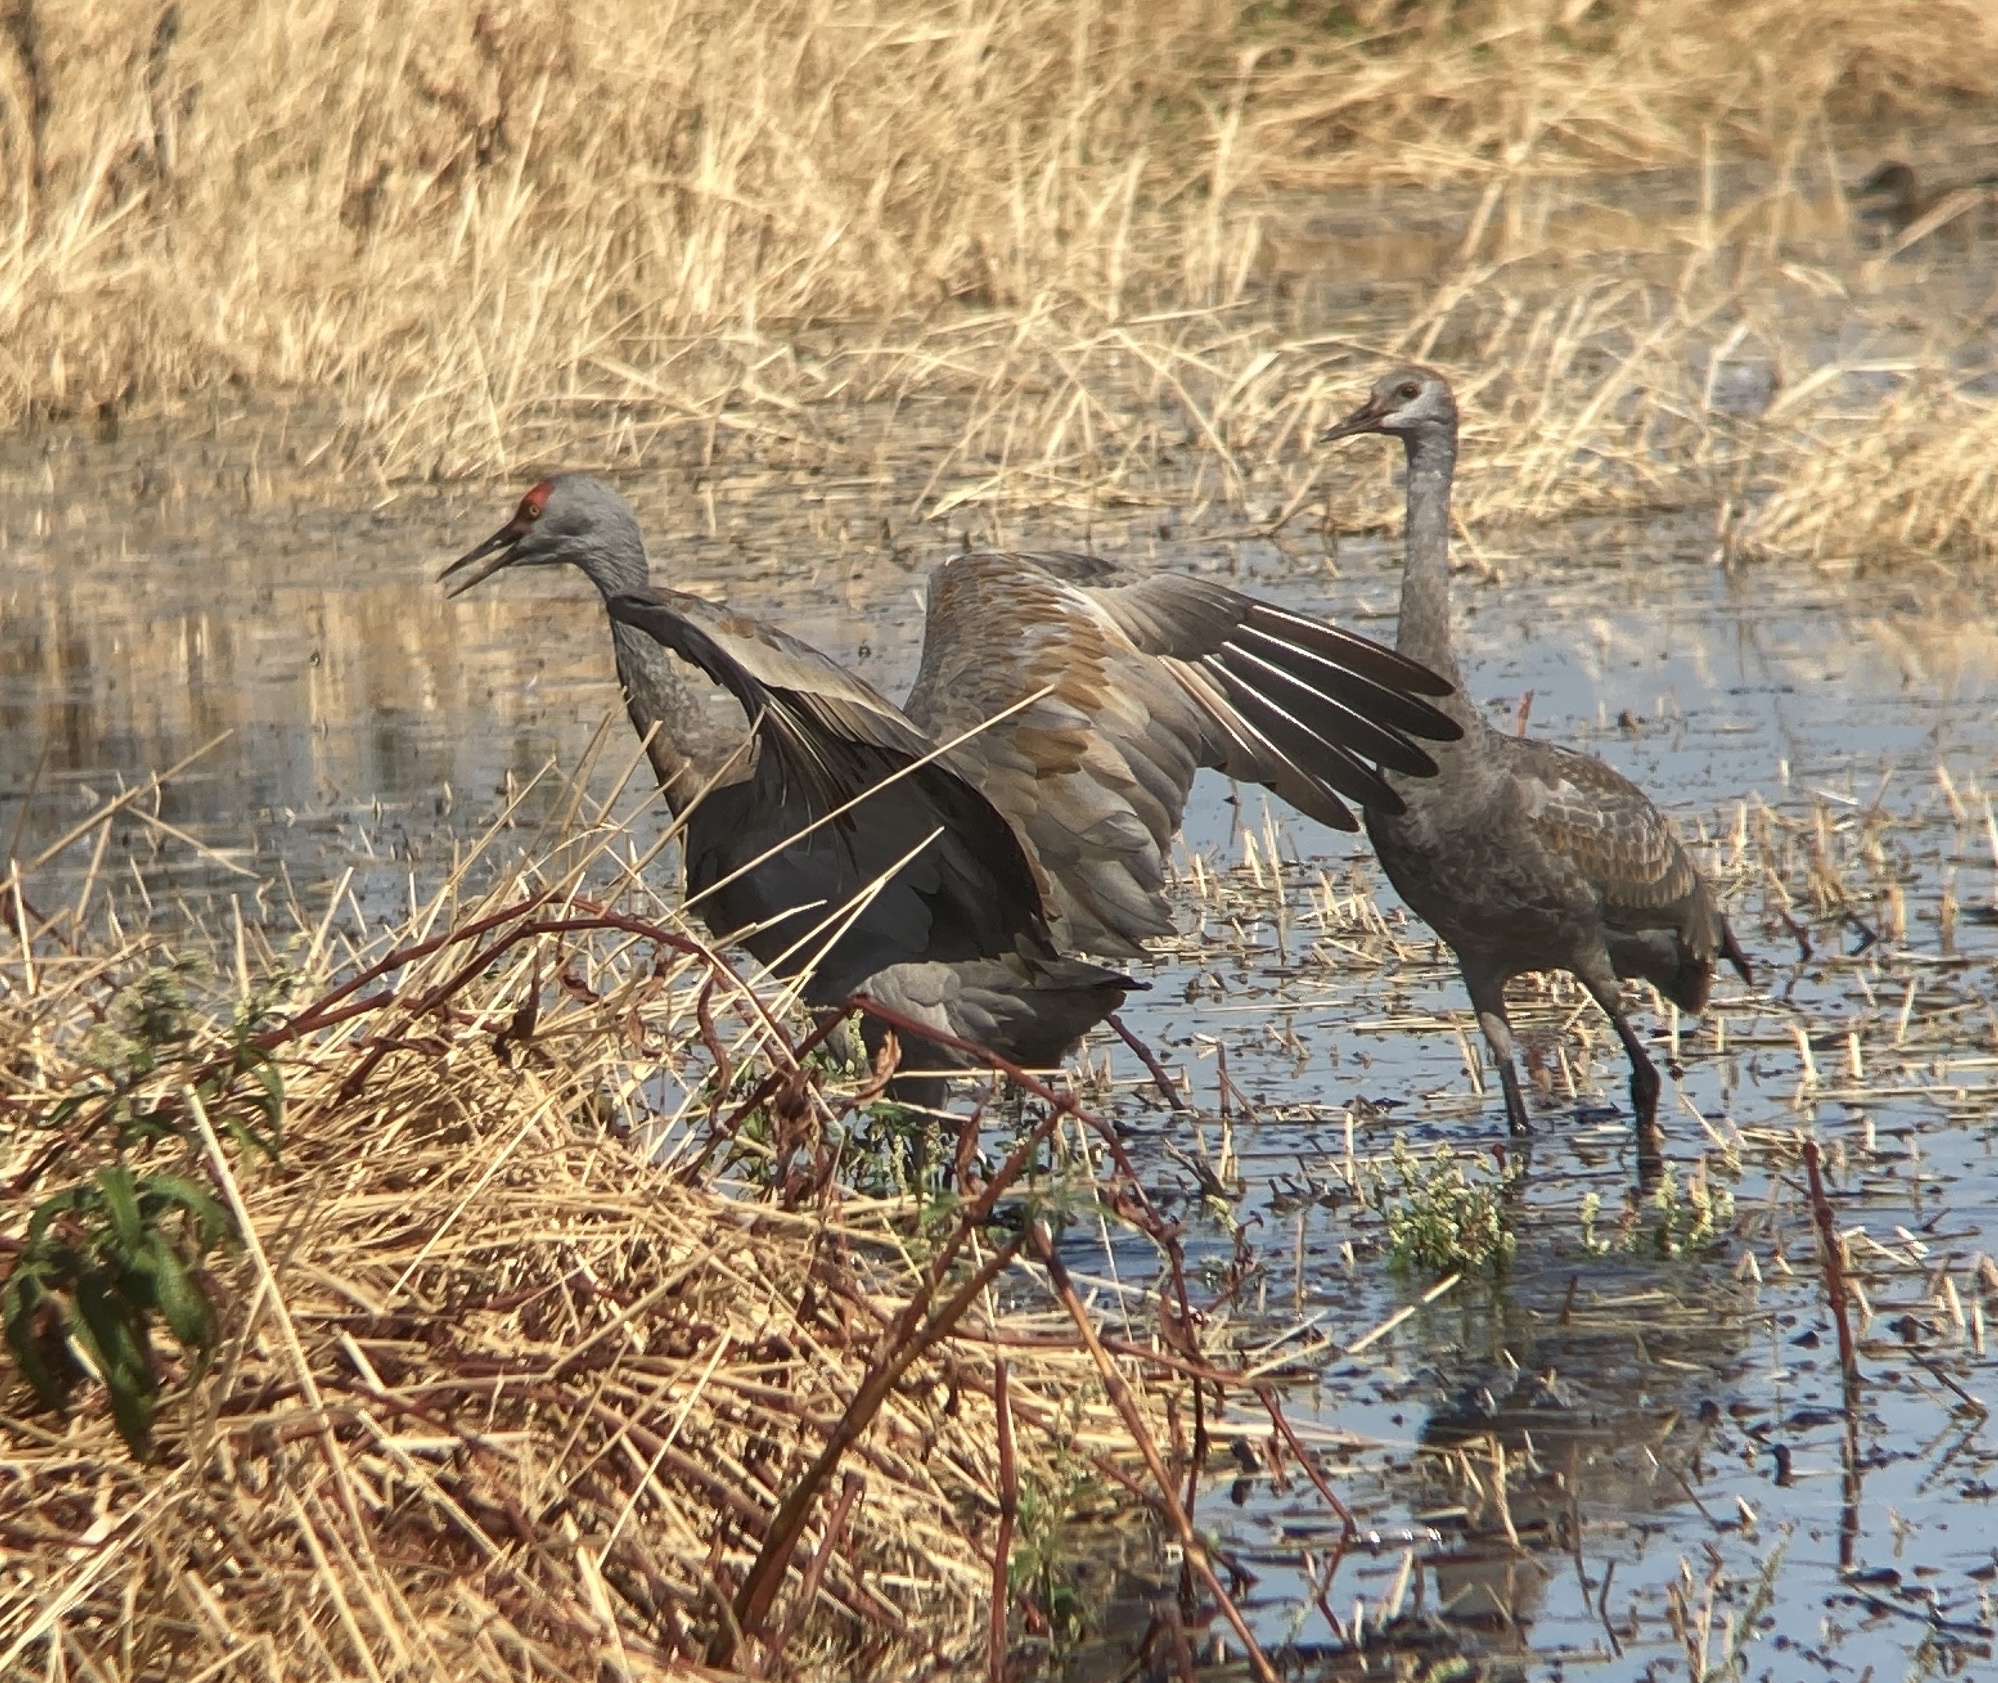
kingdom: Animalia
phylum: Chordata
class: Aves
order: Gruiformes
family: Gruidae
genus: Grus
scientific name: Grus canadensis
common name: Sandhill crane
